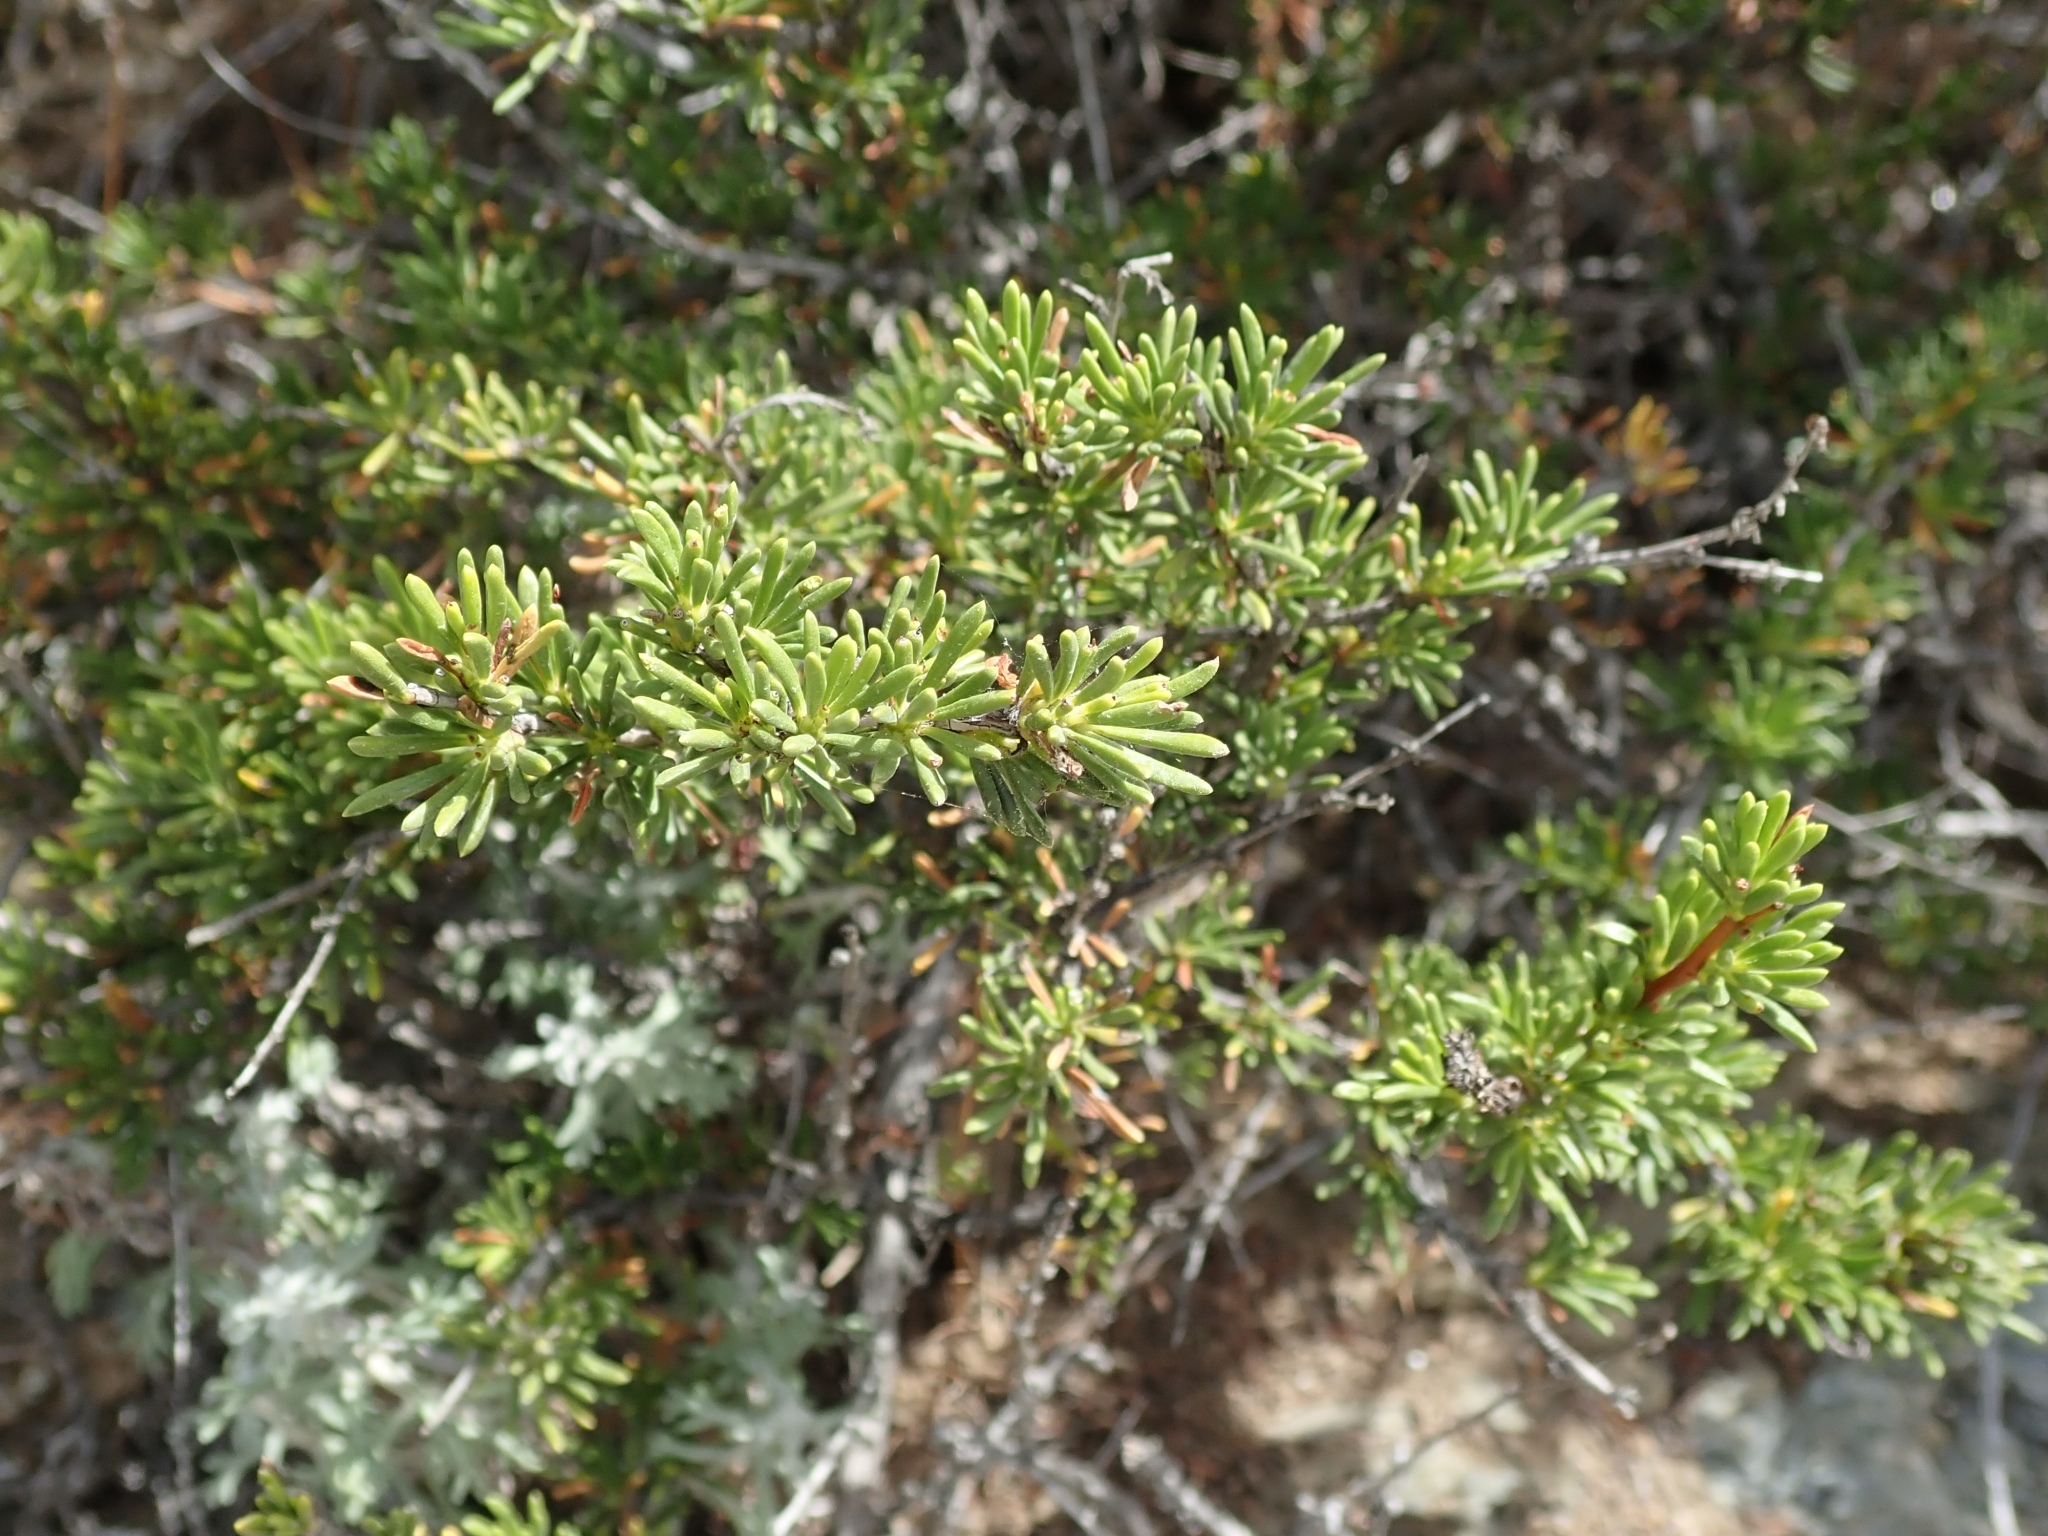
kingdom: Plantae
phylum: Tracheophyta
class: Magnoliopsida
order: Rosales
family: Rosaceae
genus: Adenostoma
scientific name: Adenostoma fasciculatum
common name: Chamise
